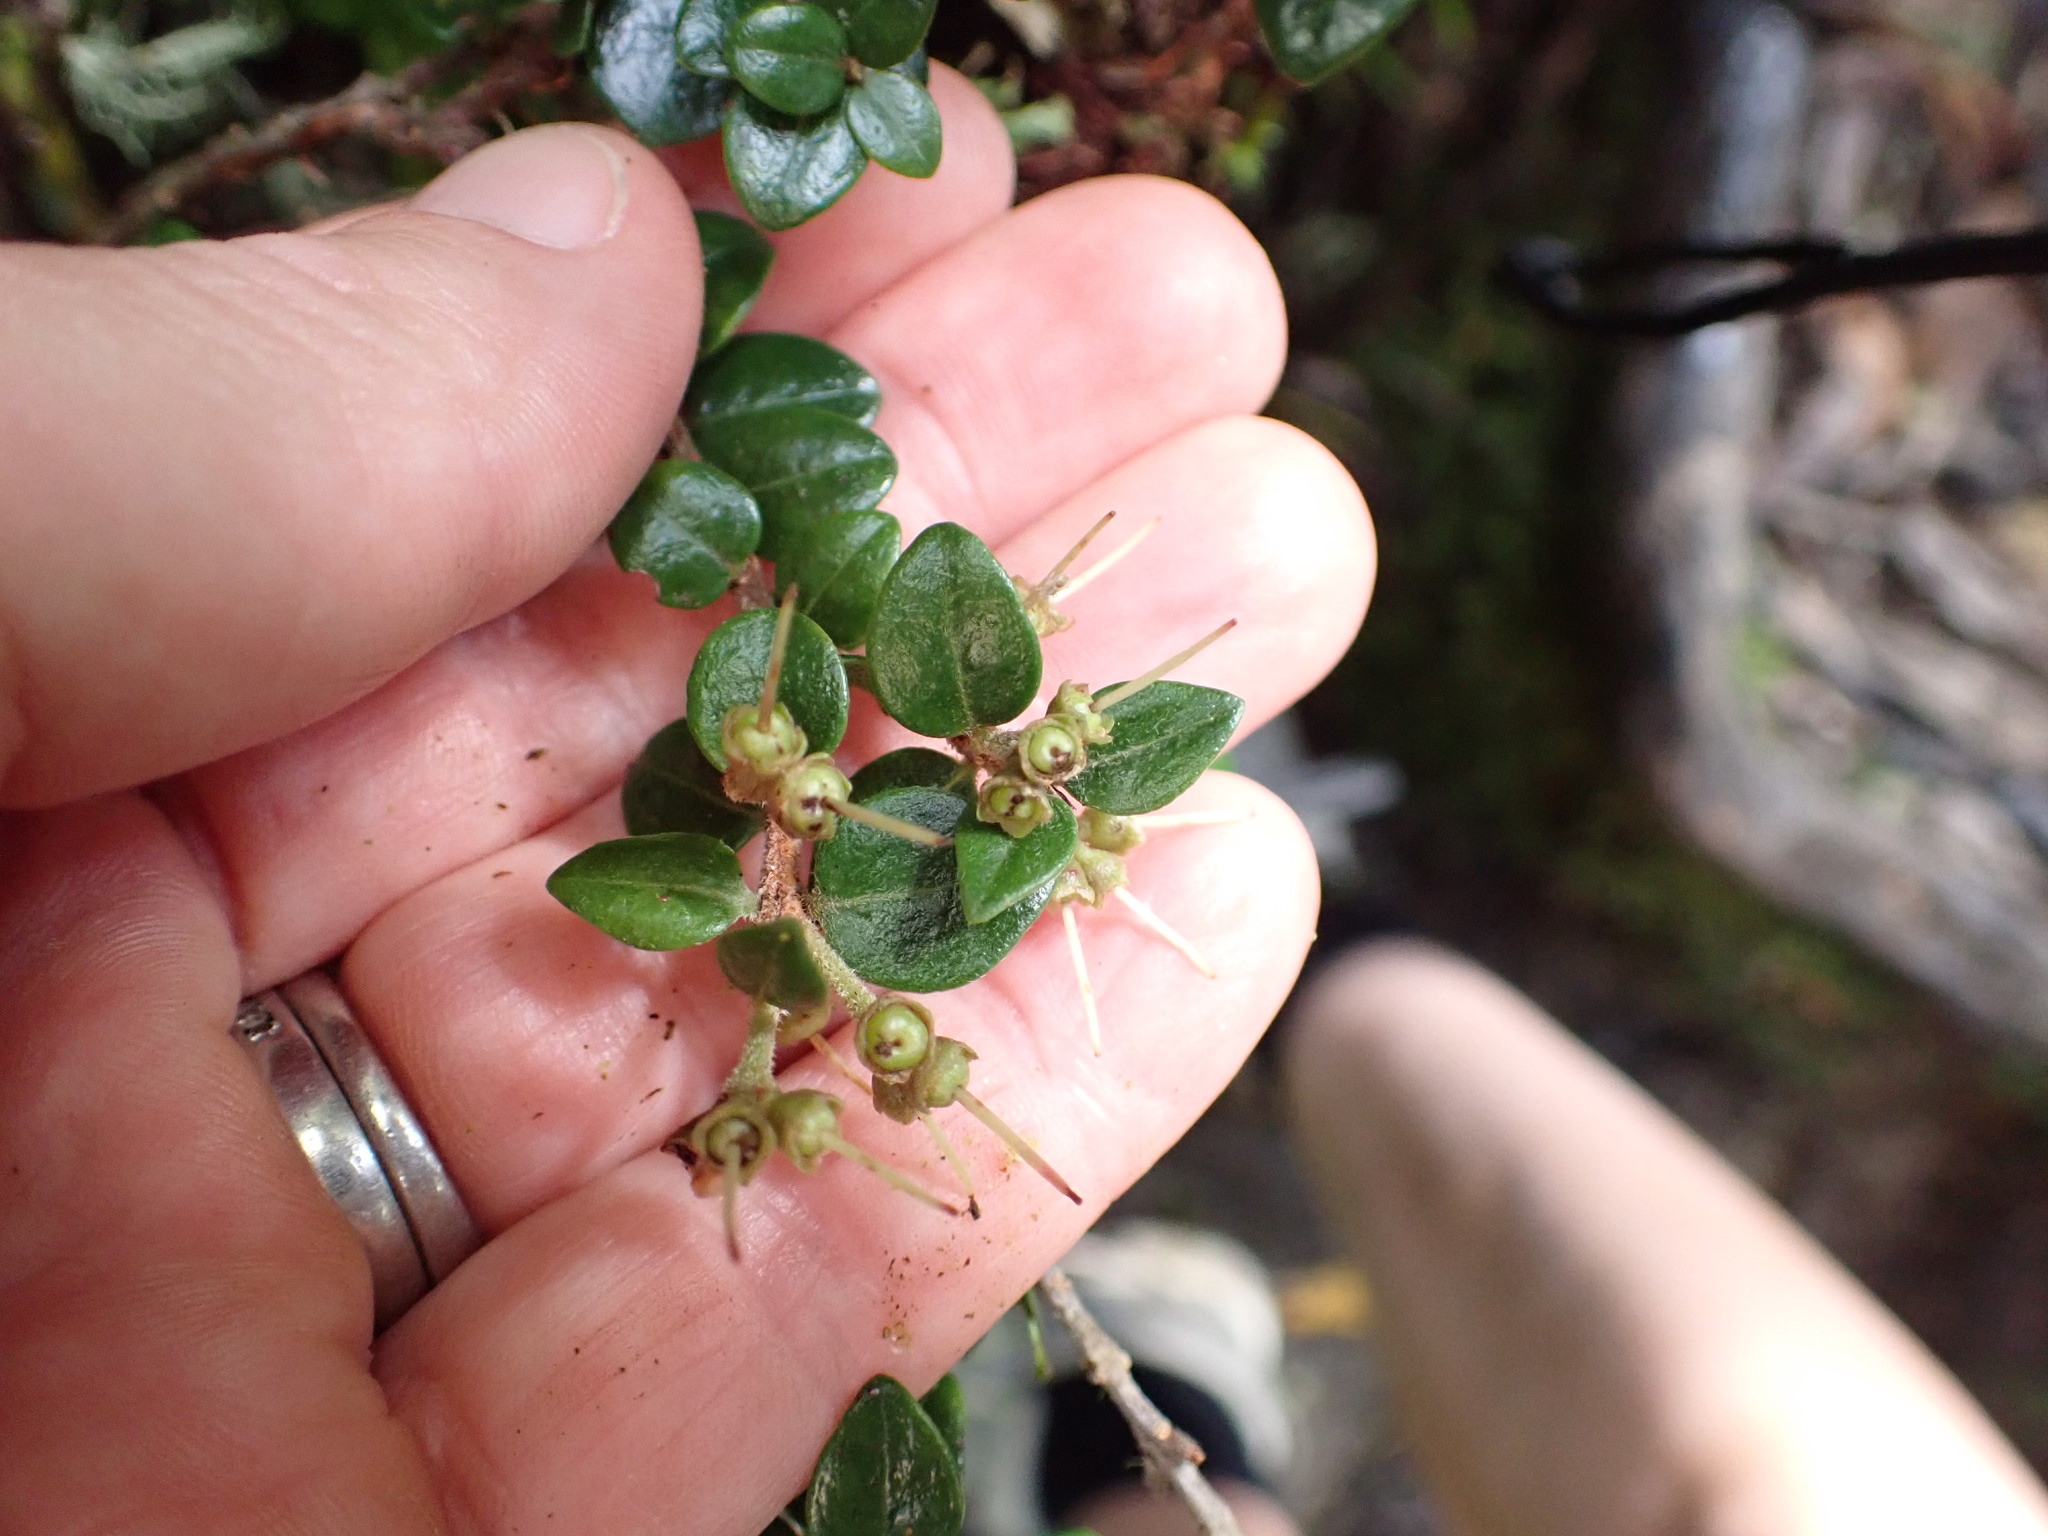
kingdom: Plantae
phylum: Tracheophyta
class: Magnoliopsida
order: Myrtales
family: Myrtaceae
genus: Metrosideros
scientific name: Metrosideros perforata
